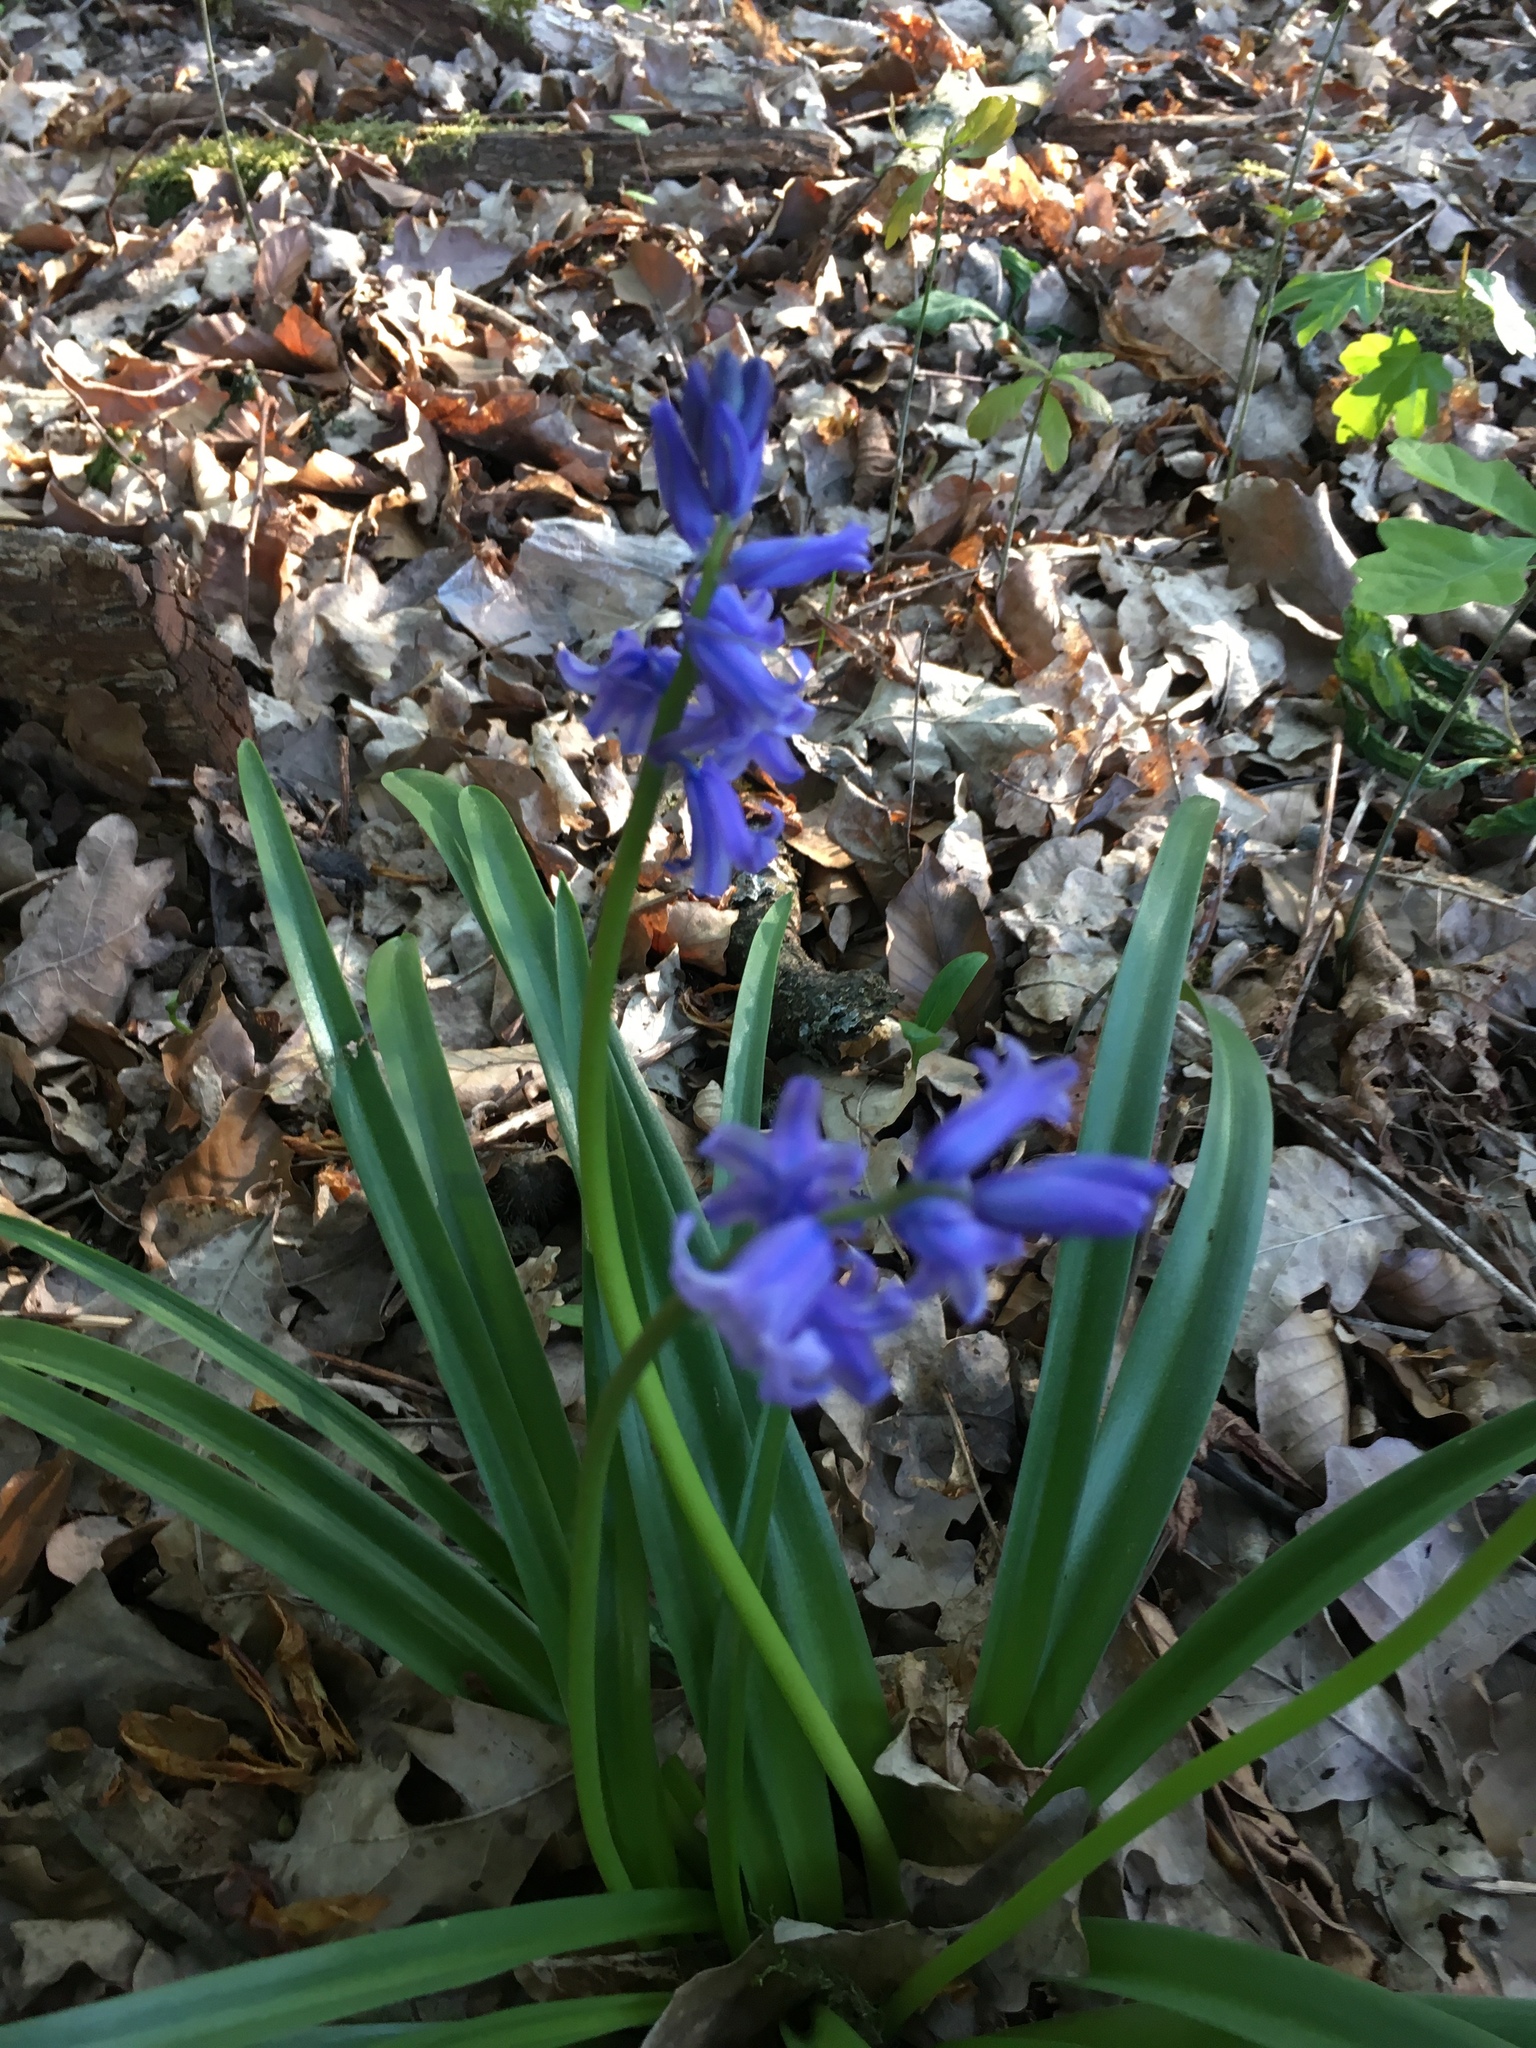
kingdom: Plantae
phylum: Tracheophyta
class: Liliopsida
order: Asparagales
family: Asparagaceae
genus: Hyacinthoides
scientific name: Hyacinthoides hispanica
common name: Spanish bluebell
